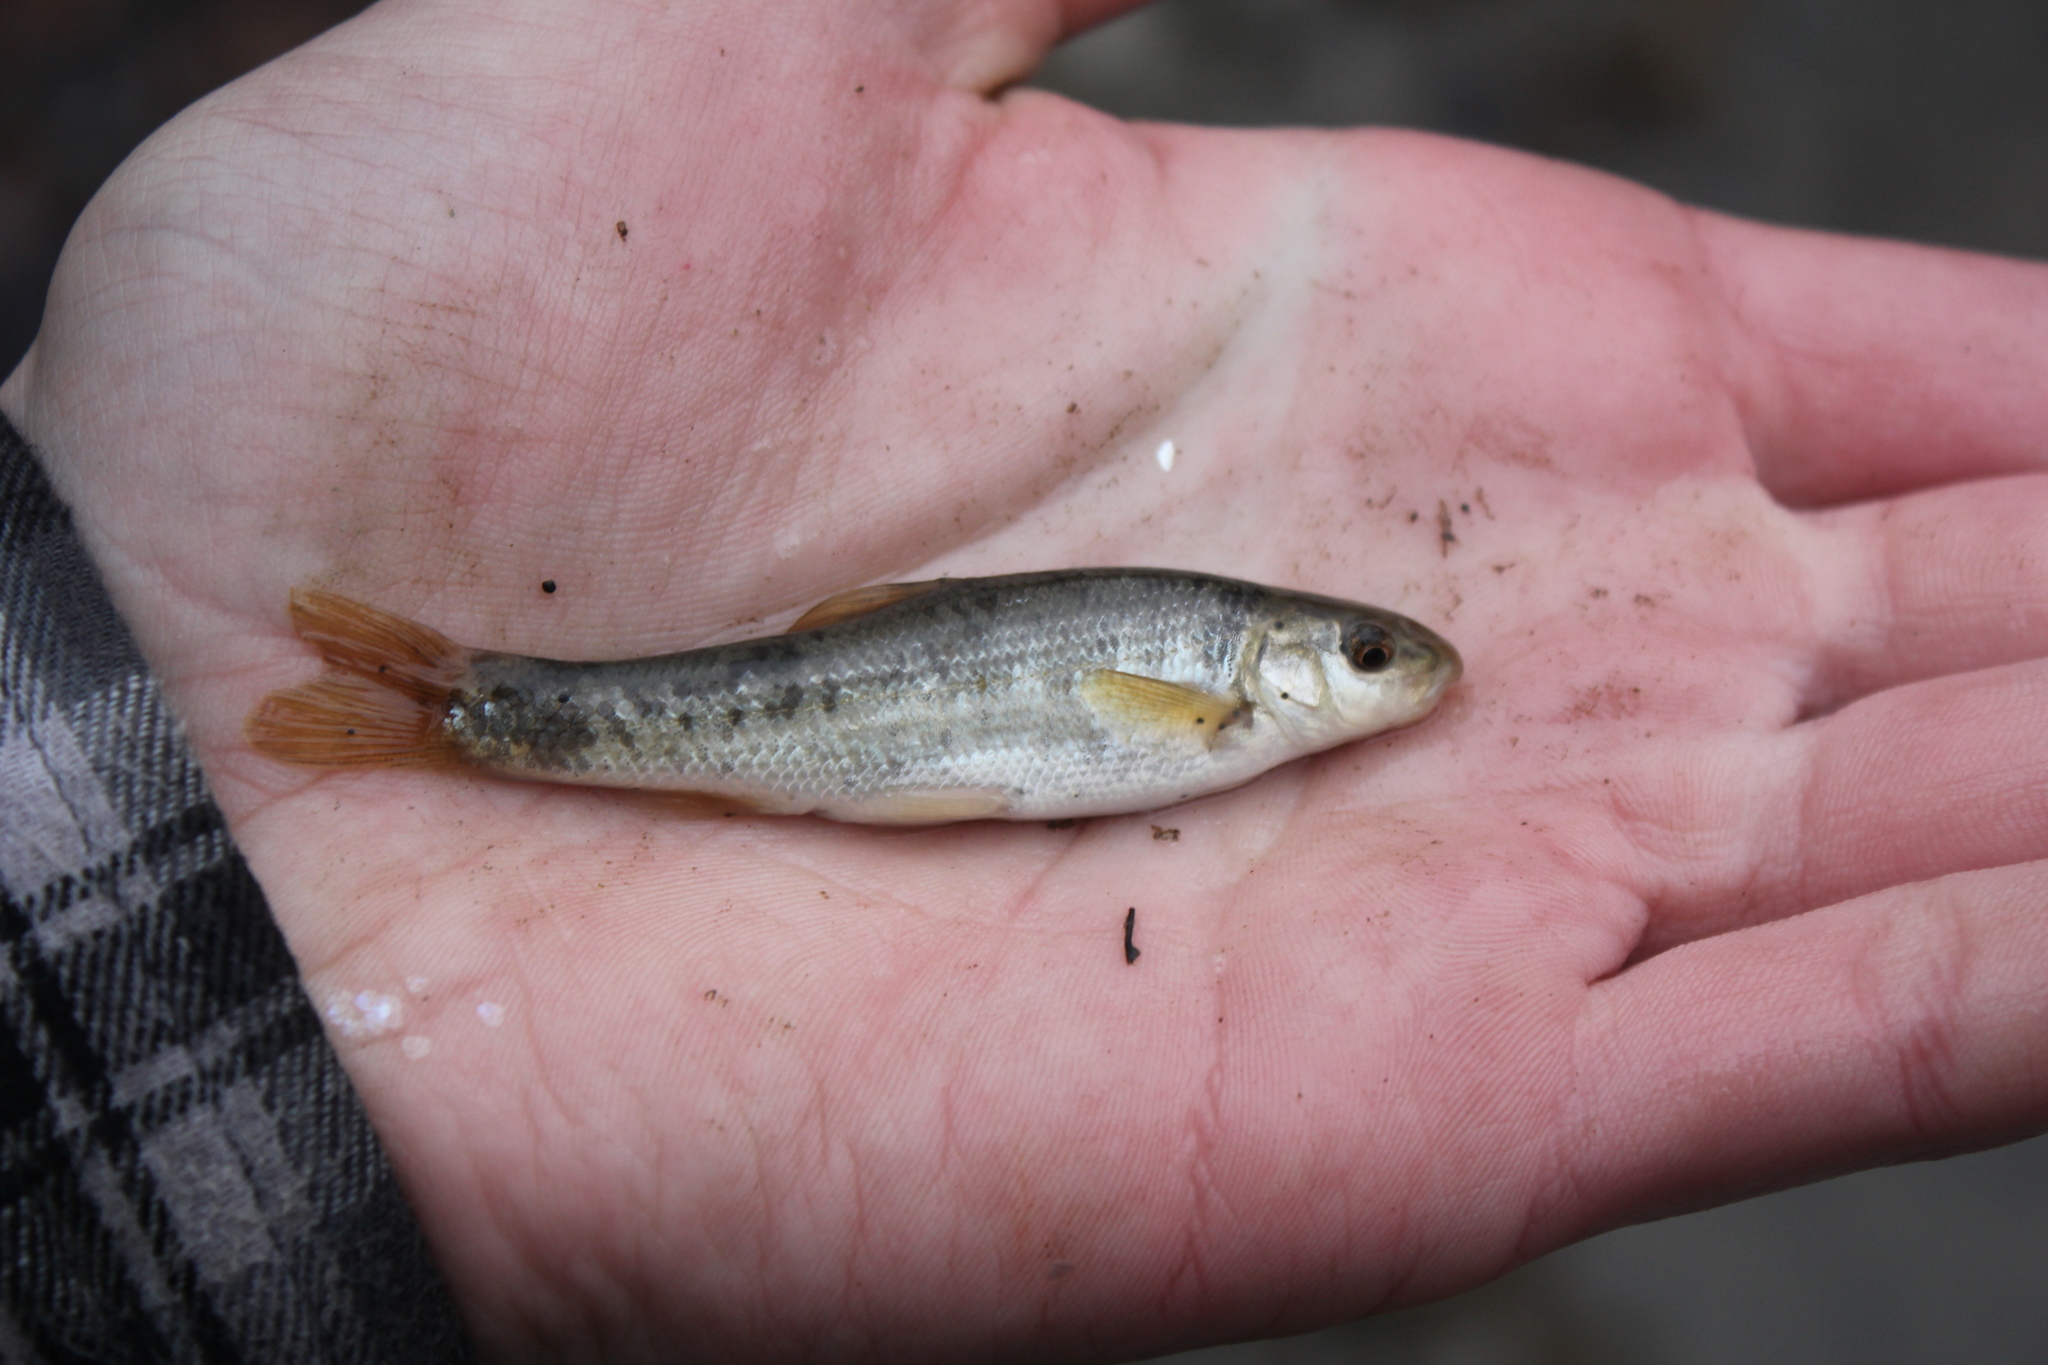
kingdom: Animalia
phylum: Chordata
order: Cypriniformes
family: Cyprinidae
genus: Campostoma
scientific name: Campostoma anomalum
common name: Central stoneroller
